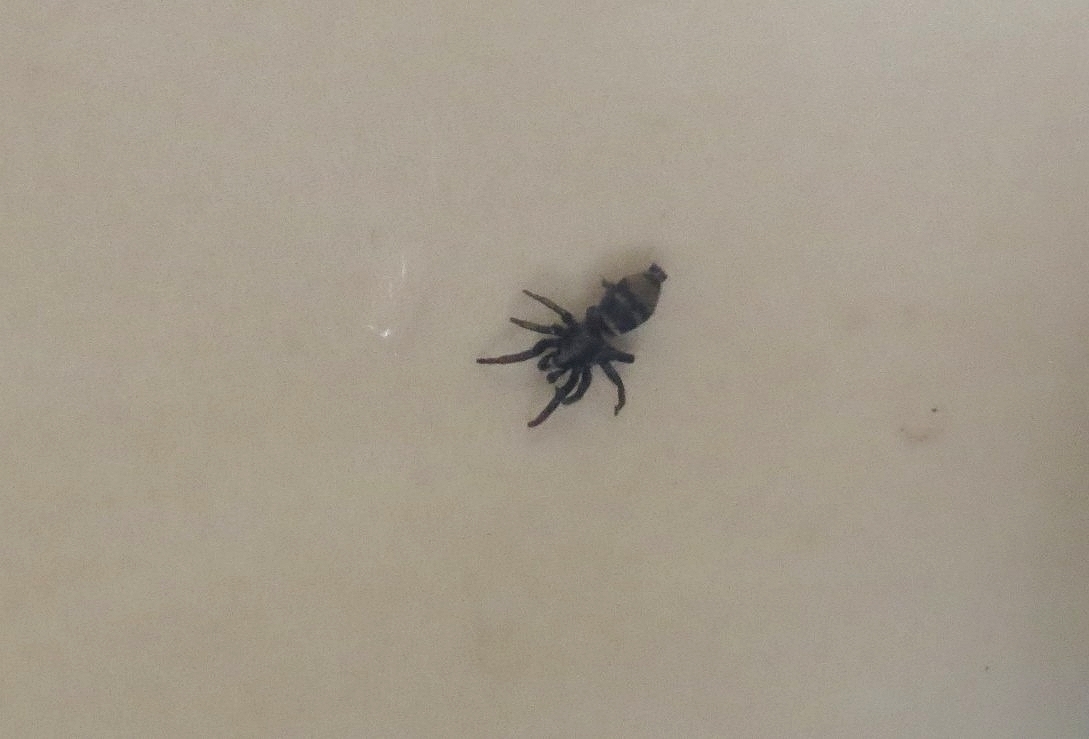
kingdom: Animalia
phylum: Arthropoda
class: Arachnida
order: Araneae
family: Gnaphosidae
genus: Latonigena
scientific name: Latonigena auricomis
